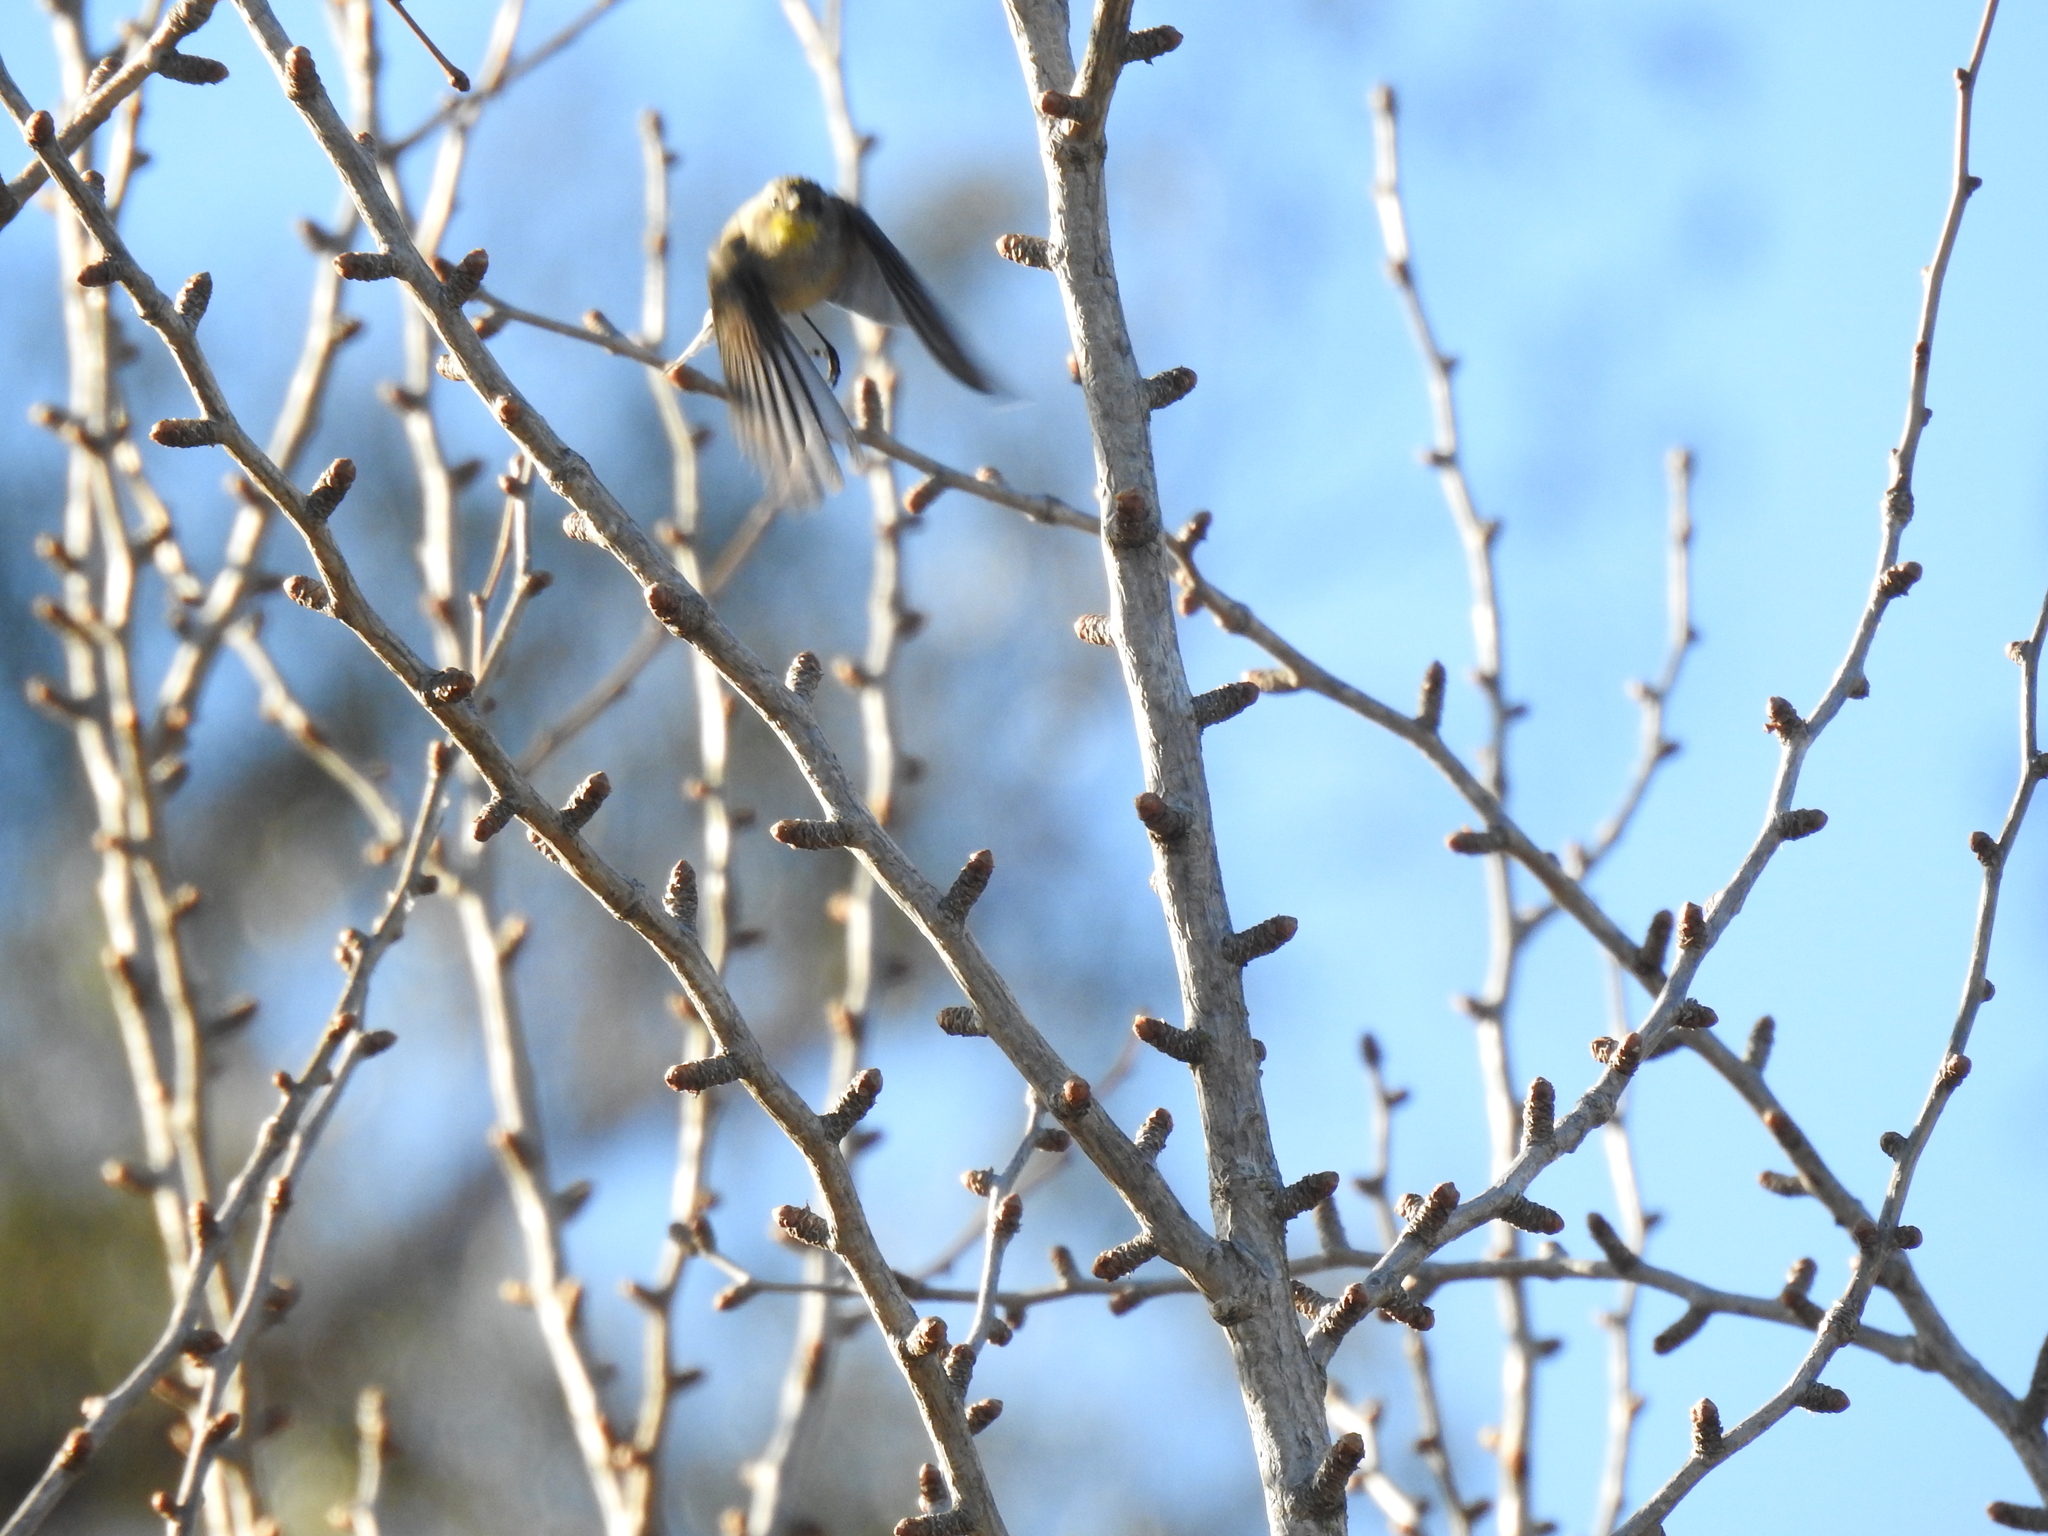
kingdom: Animalia
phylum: Chordata
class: Aves
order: Passeriformes
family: Parulidae
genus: Setophaga
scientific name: Setophaga coronata
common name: Myrtle warbler
